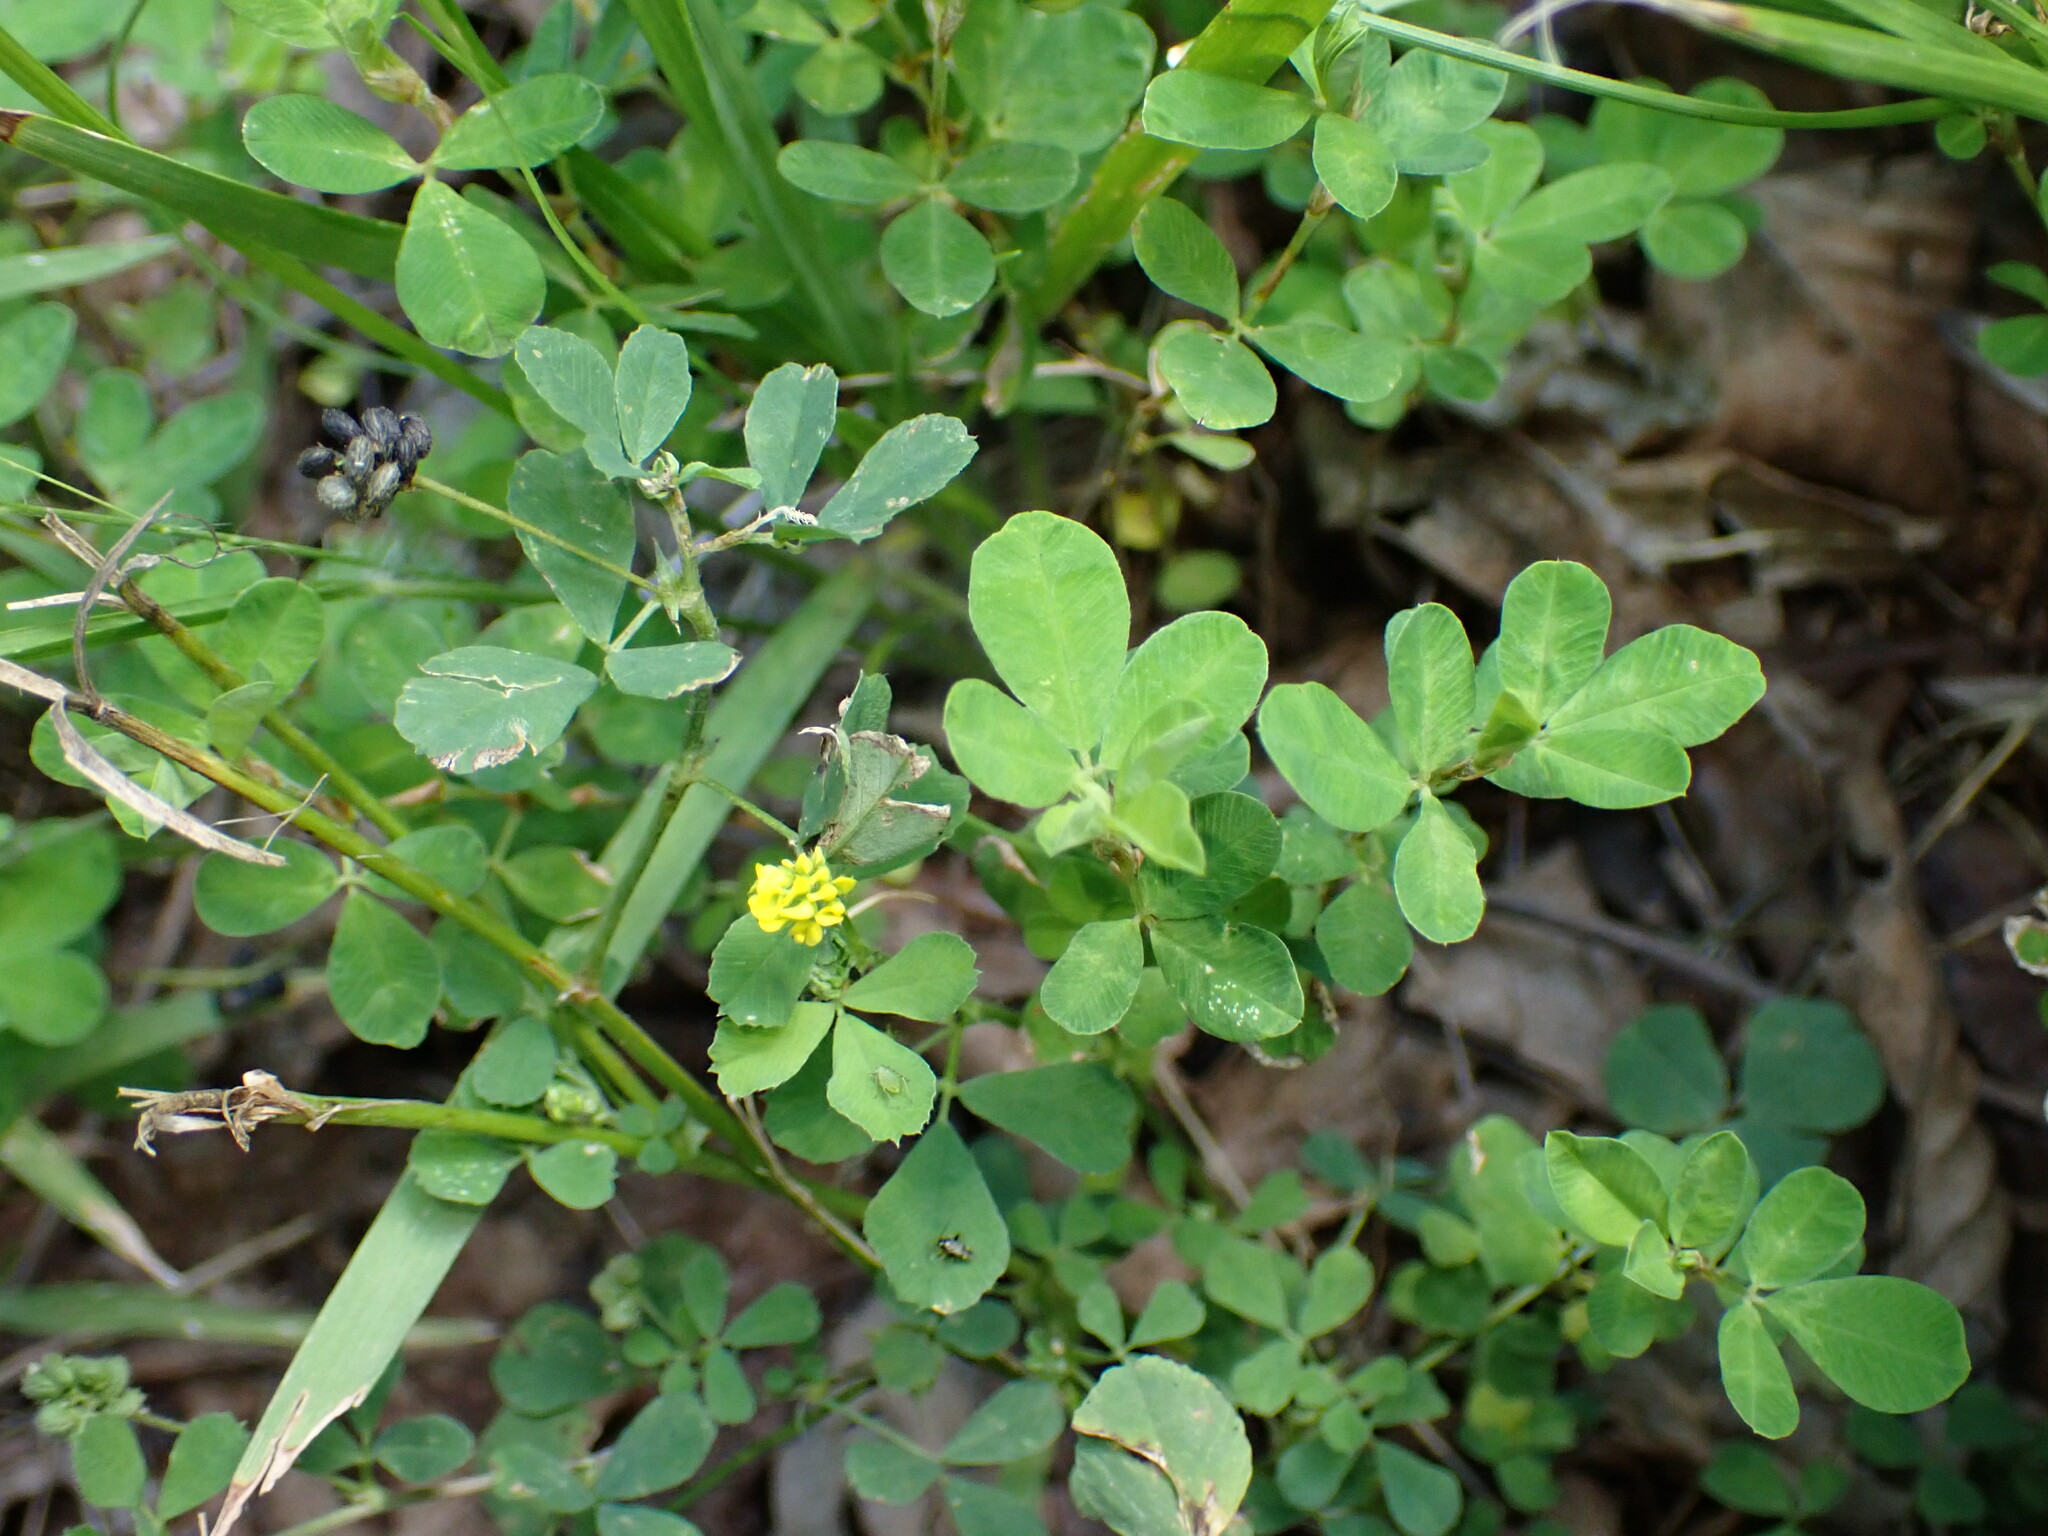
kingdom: Plantae
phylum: Tracheophyta
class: Magnoliopsida
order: Fabales
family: Fabaceae
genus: Medicago
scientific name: Medicago lupulina
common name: Black medick
